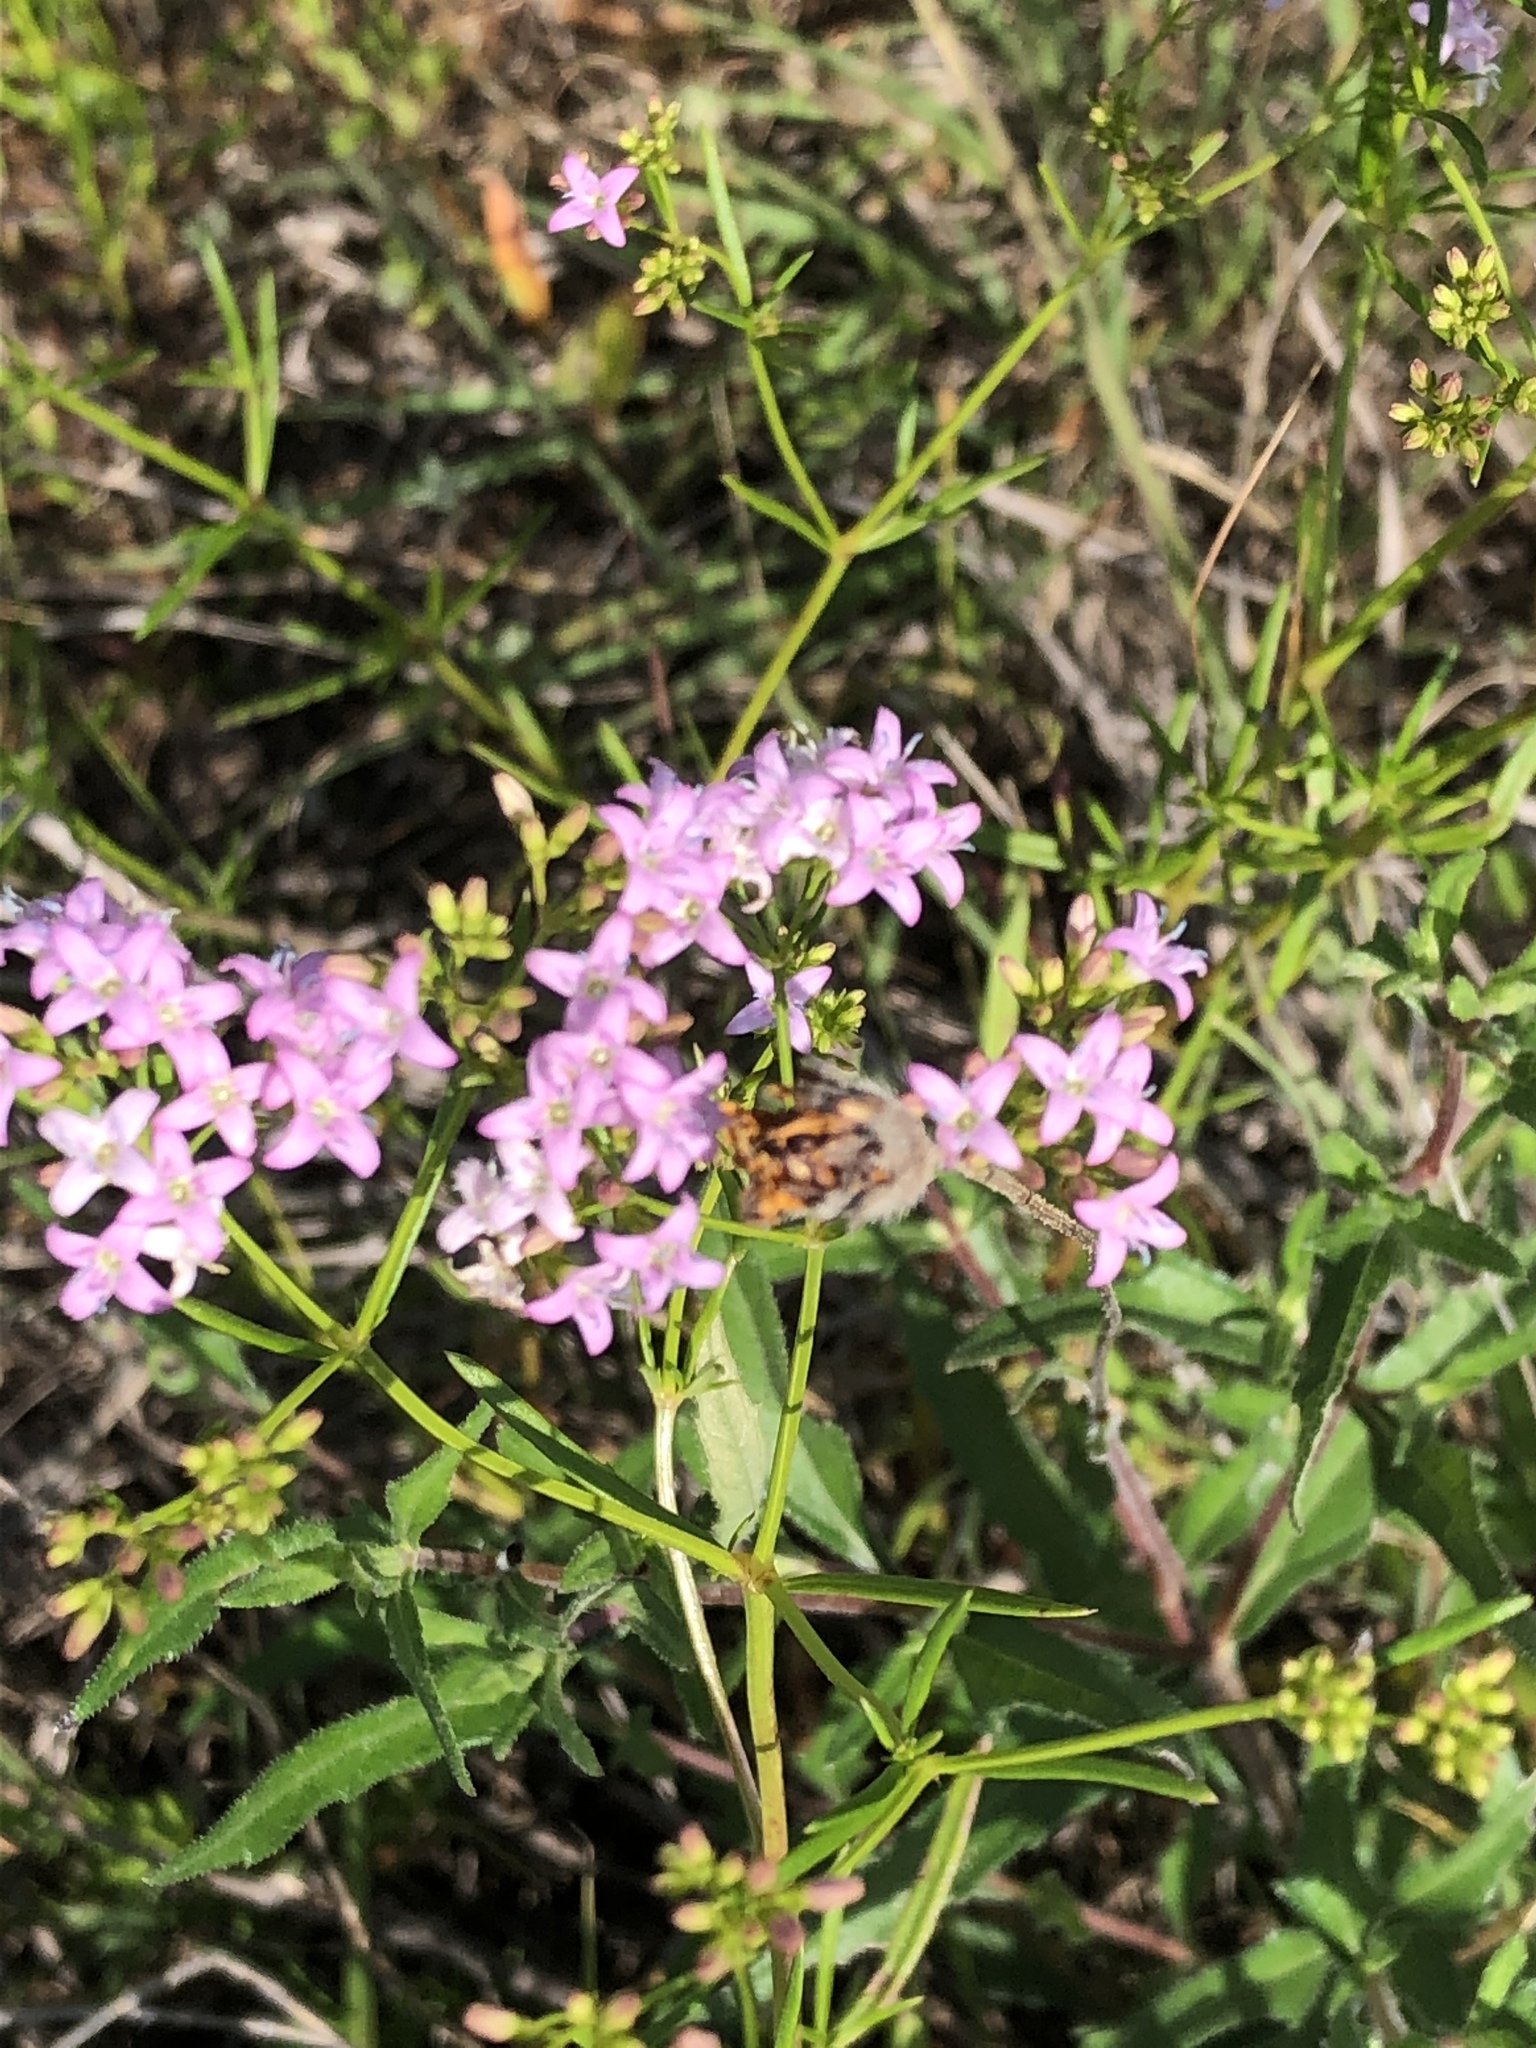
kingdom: Plantae
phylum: Tracheophyta
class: Magnoliopsida
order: Gentianales
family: Rubiaceae
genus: Stenaria
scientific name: Stenaria nigricans
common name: Diamondflowers
